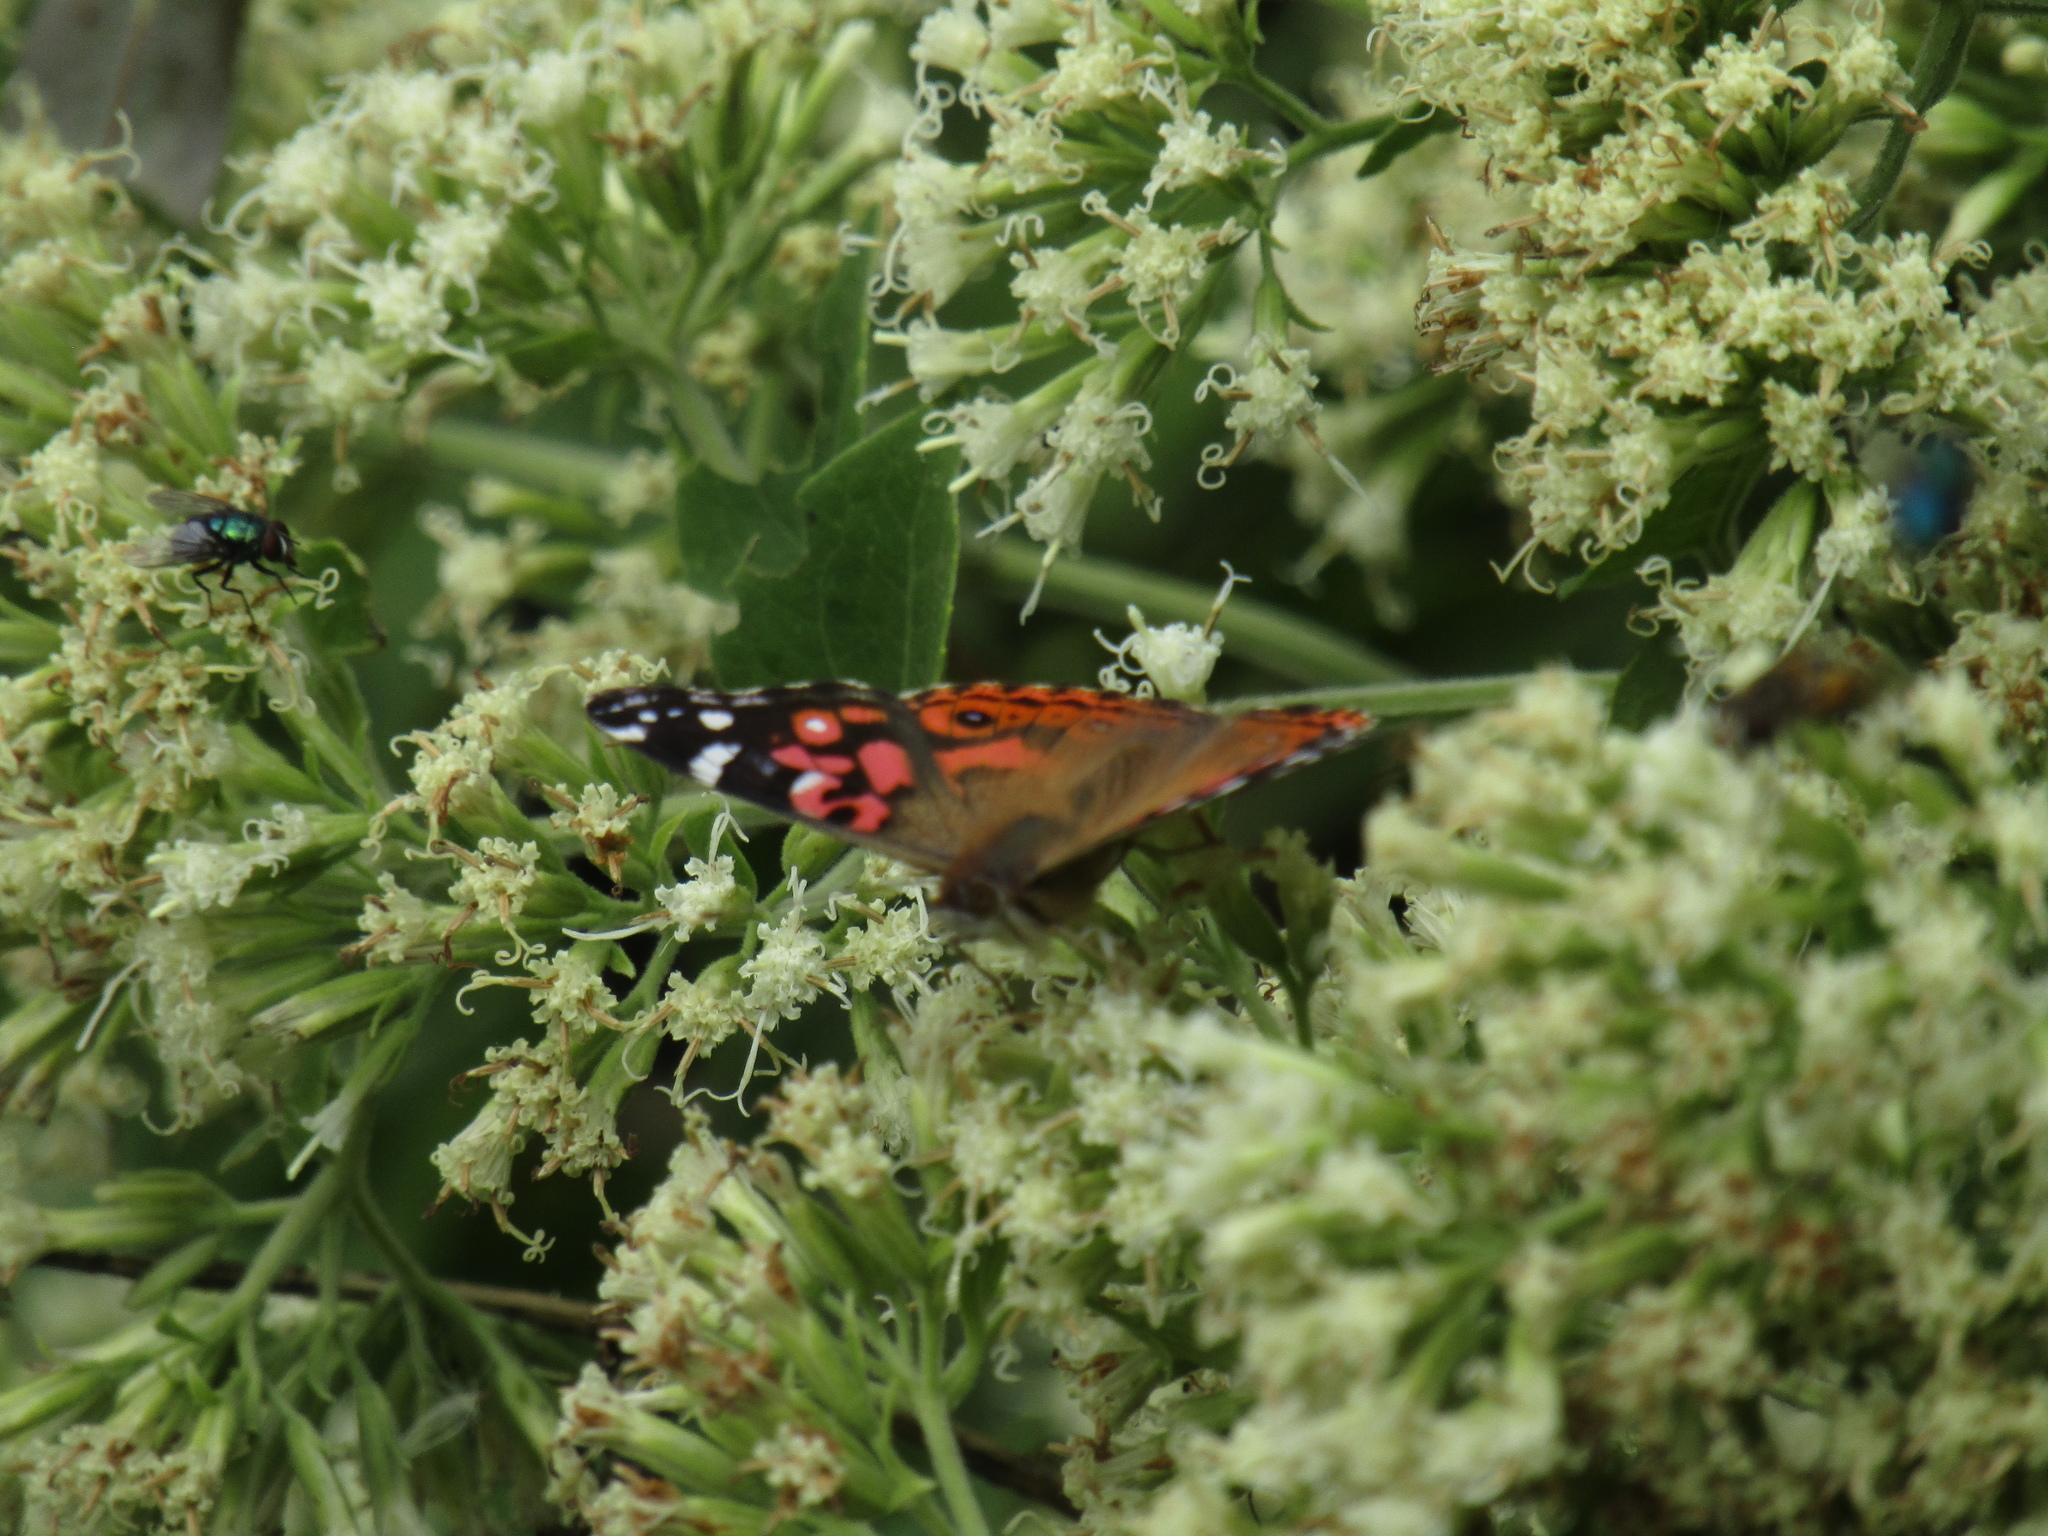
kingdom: Animalia
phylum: Arthropoda
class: Insecta
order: Lepidoptera
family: Nymphalidae
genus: Vanessa
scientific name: Vanessa braziliensis
